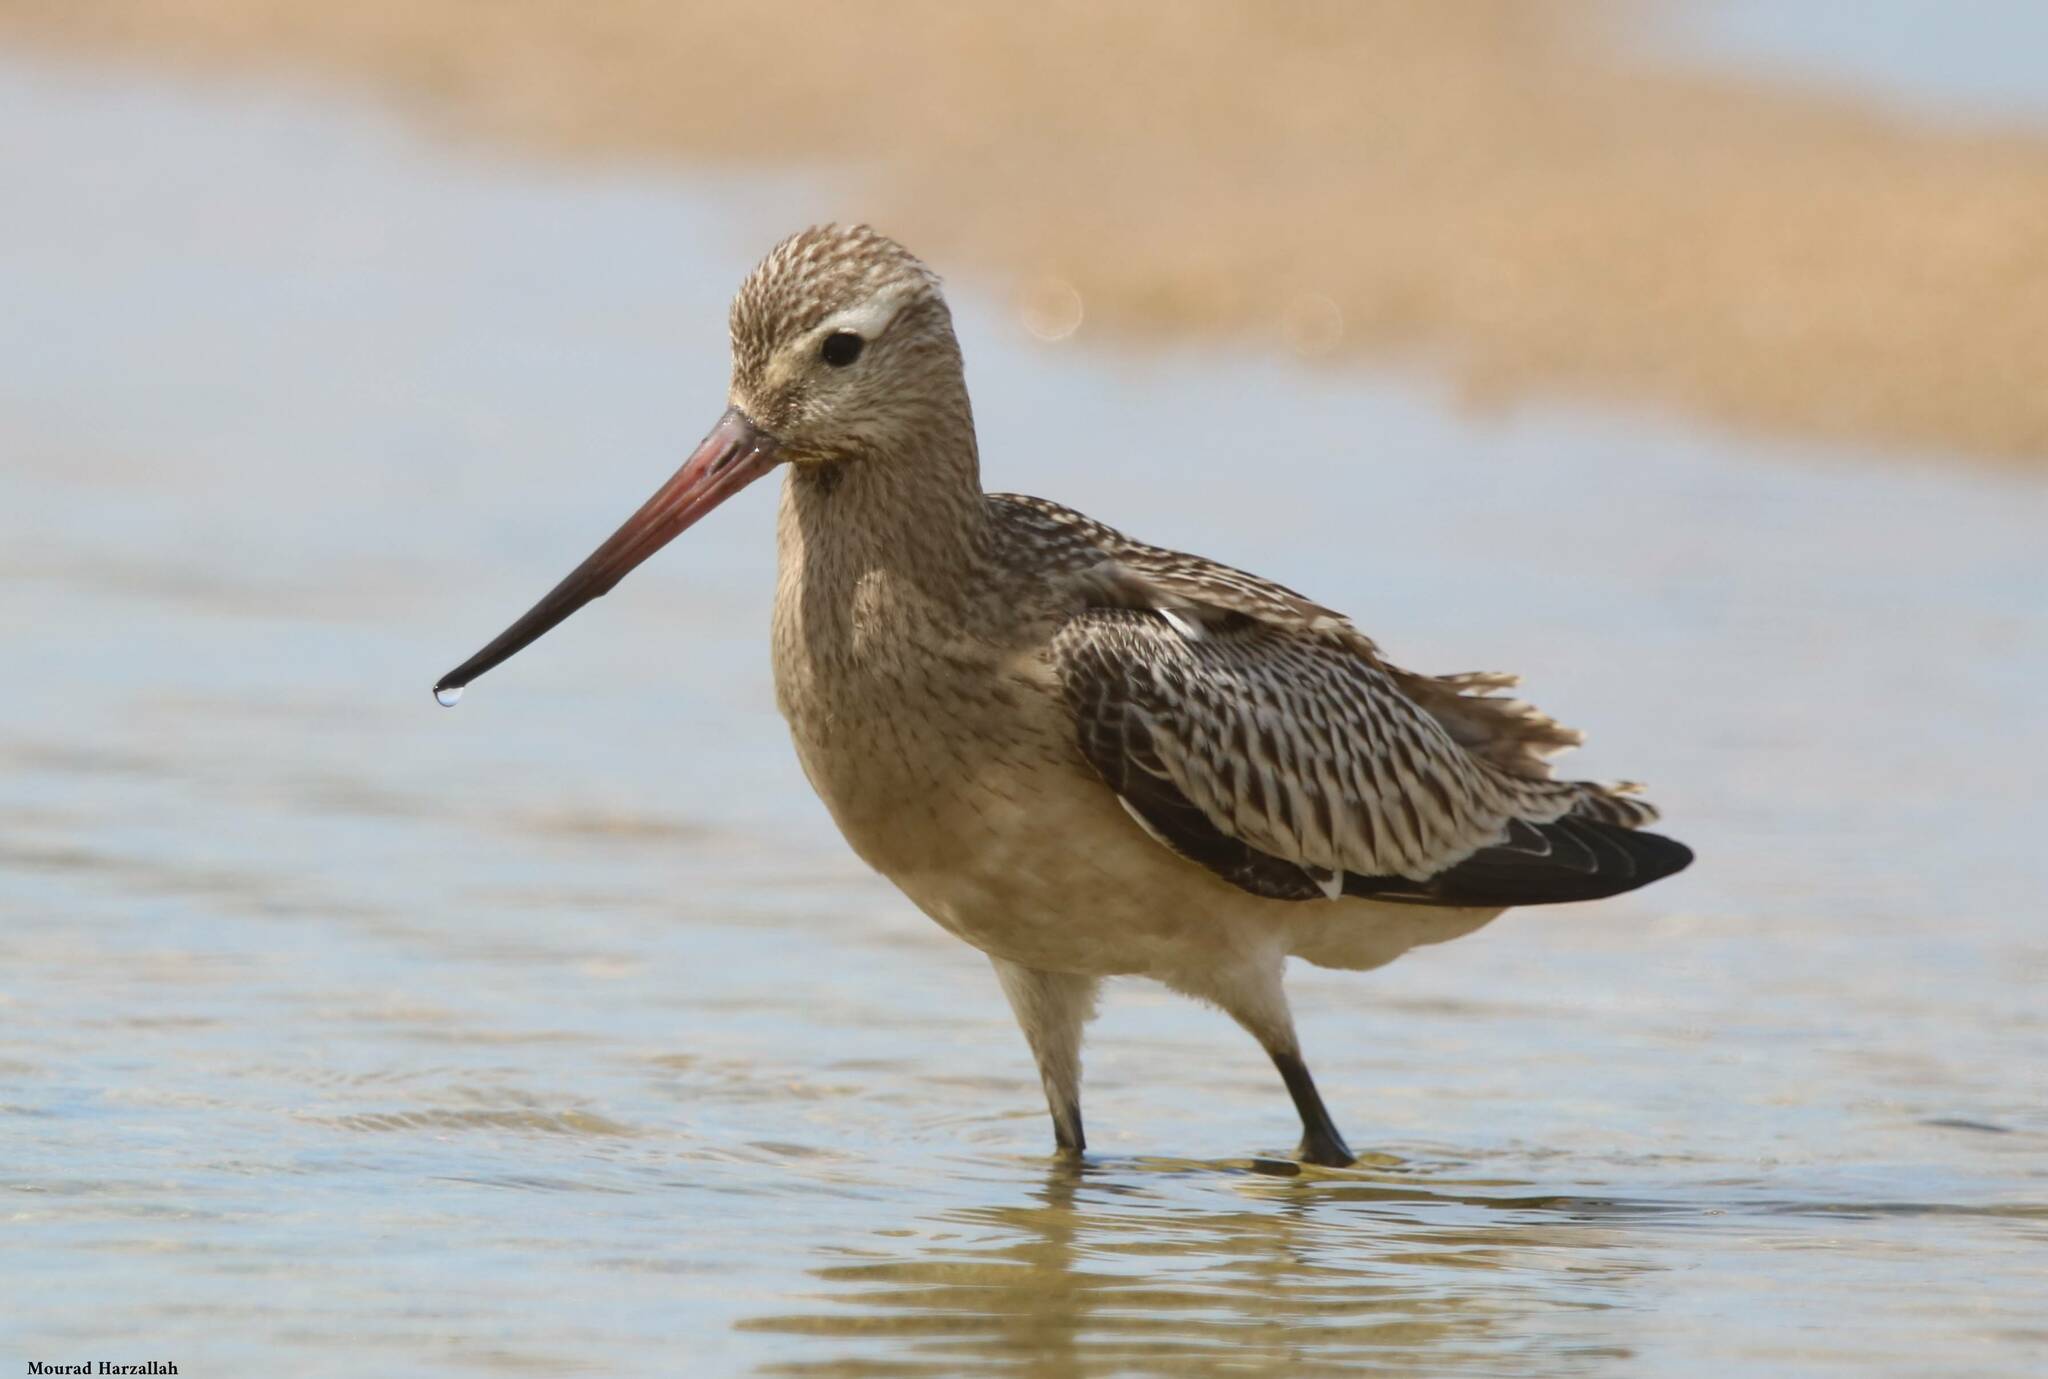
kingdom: Animalia
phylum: Chordata
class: Aves
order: Charadriiformes
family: Scolopacidae
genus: Limosa
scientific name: Limosa lapponica
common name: Bar-tailed godwit
